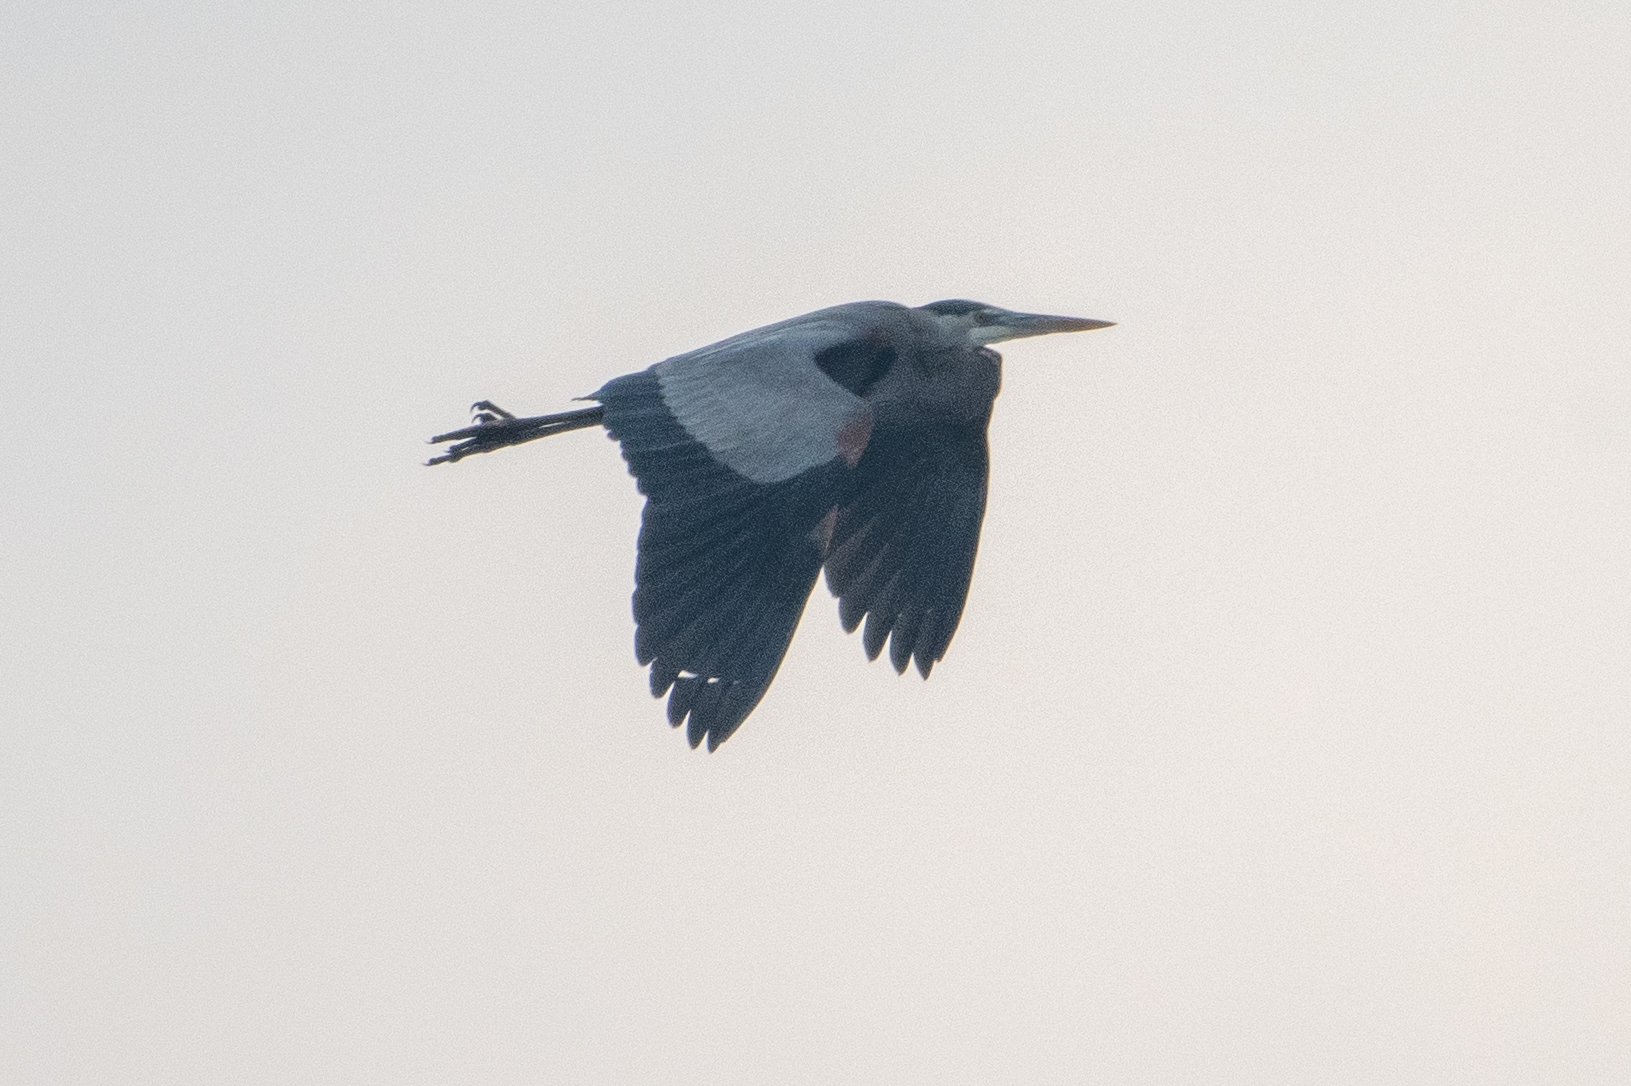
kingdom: Animalia
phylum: Chordata
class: Aves
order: Pelecaniformes
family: Ardeidae
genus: Ardea
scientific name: Ardea herodias
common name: Great blue heron
